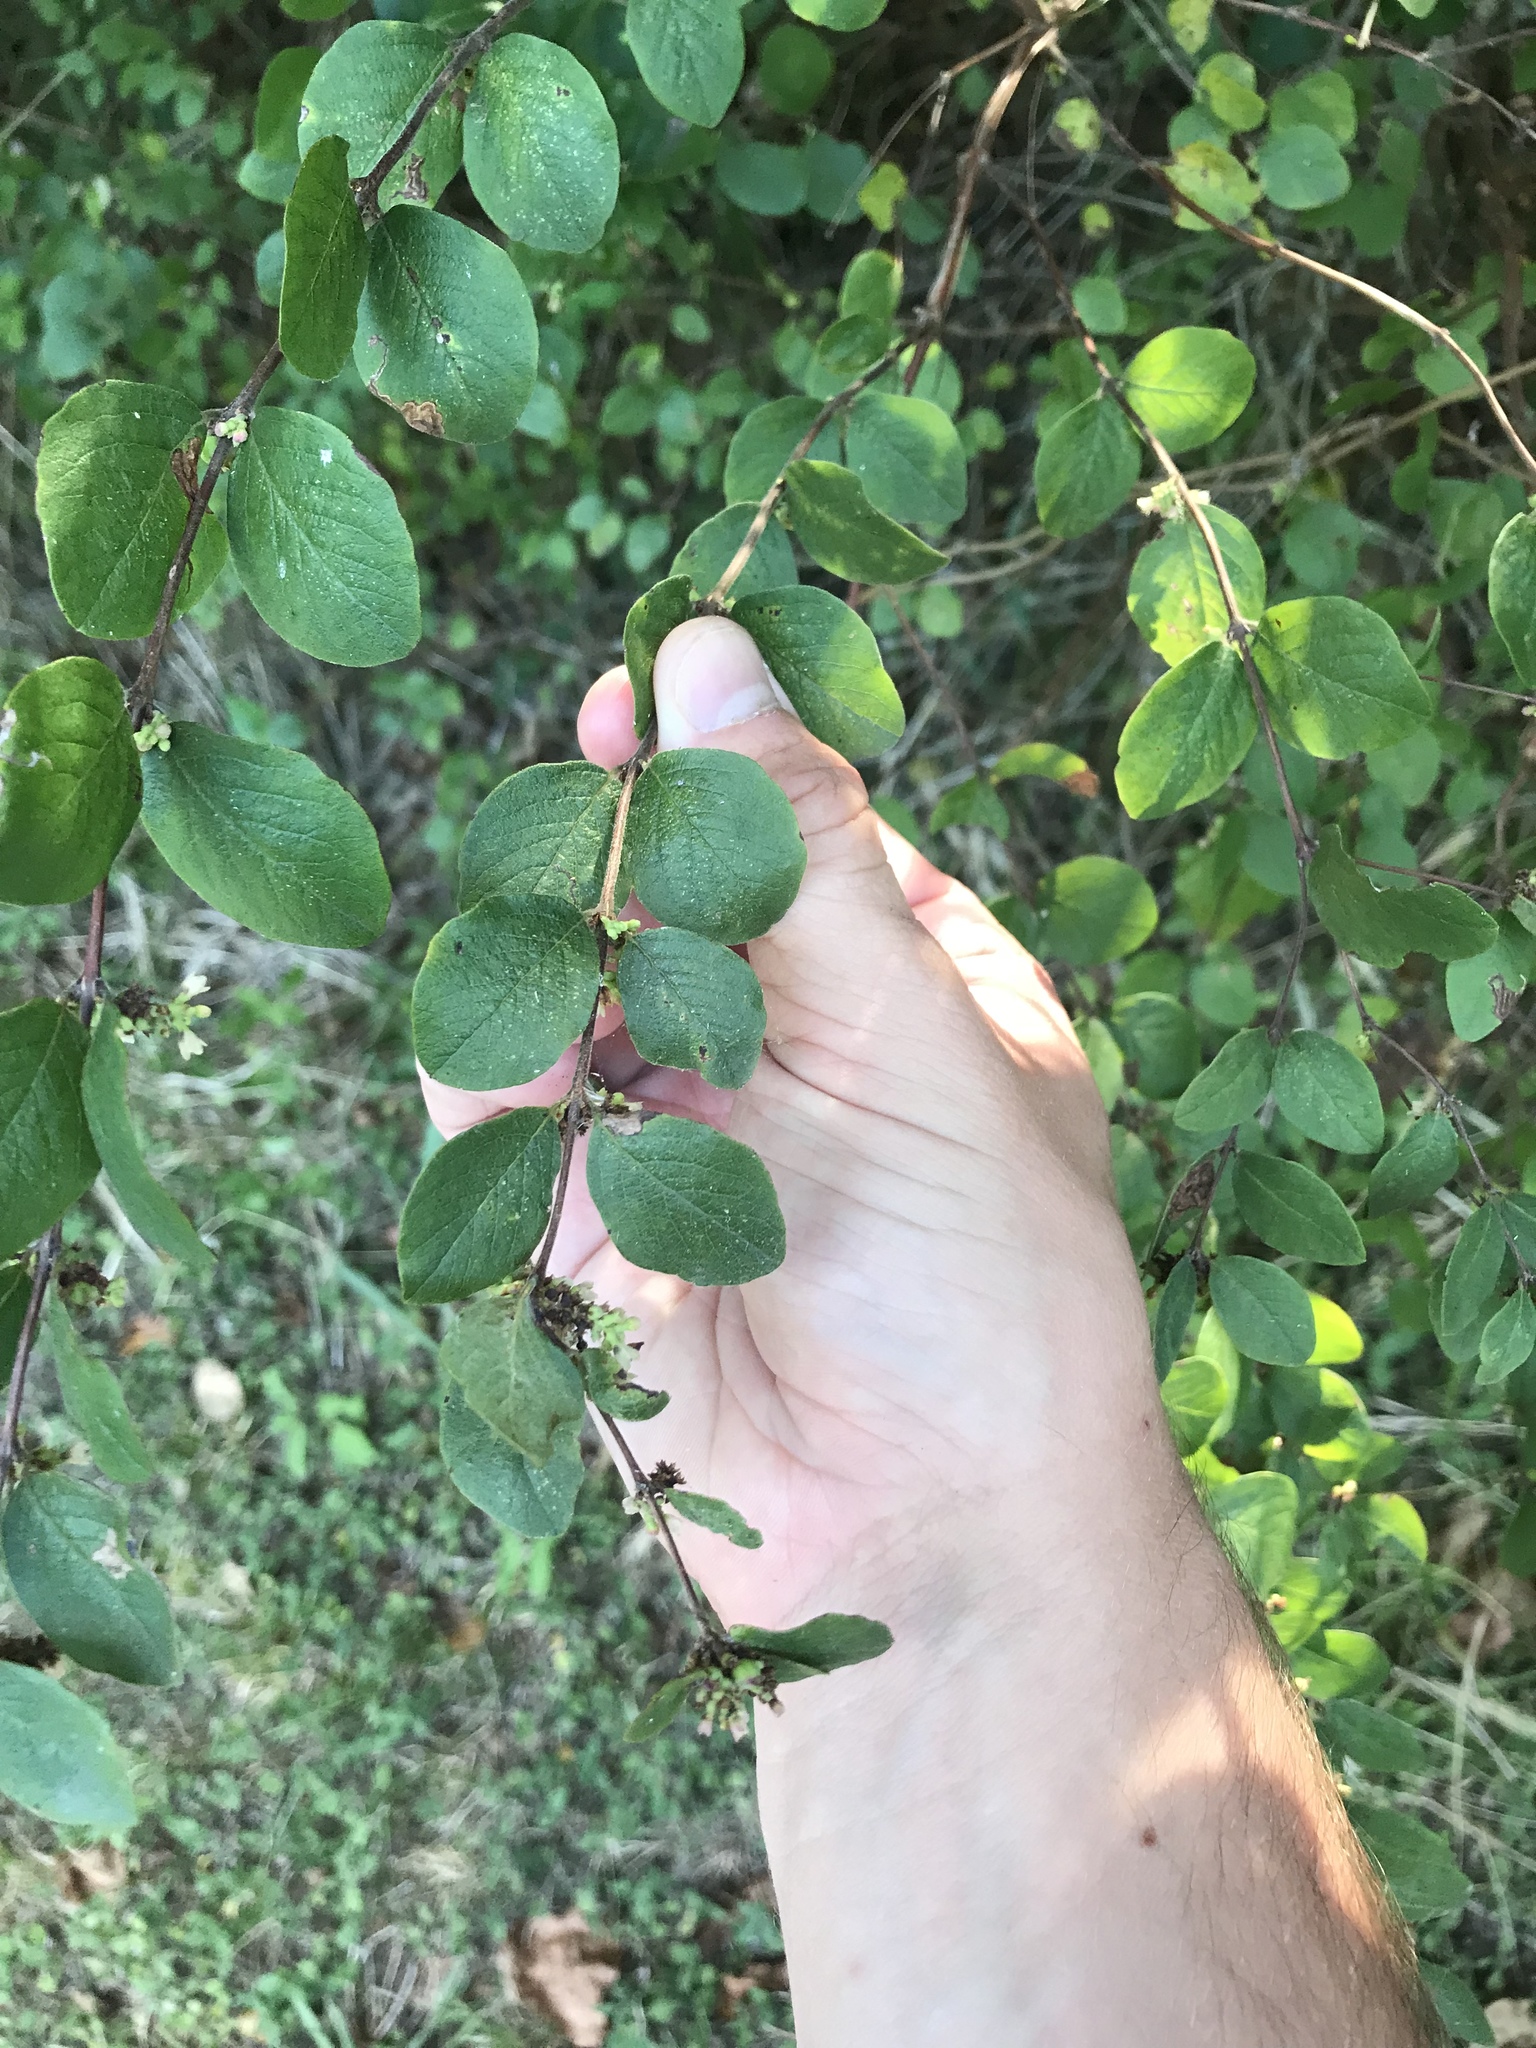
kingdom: Plantae
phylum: Tracheophyta
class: Magnoliopsida
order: Dipsacales
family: Caprifoliaceae
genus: Symphoricarpos
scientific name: Symphoricarpos orbiculatus
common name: Coralberry
